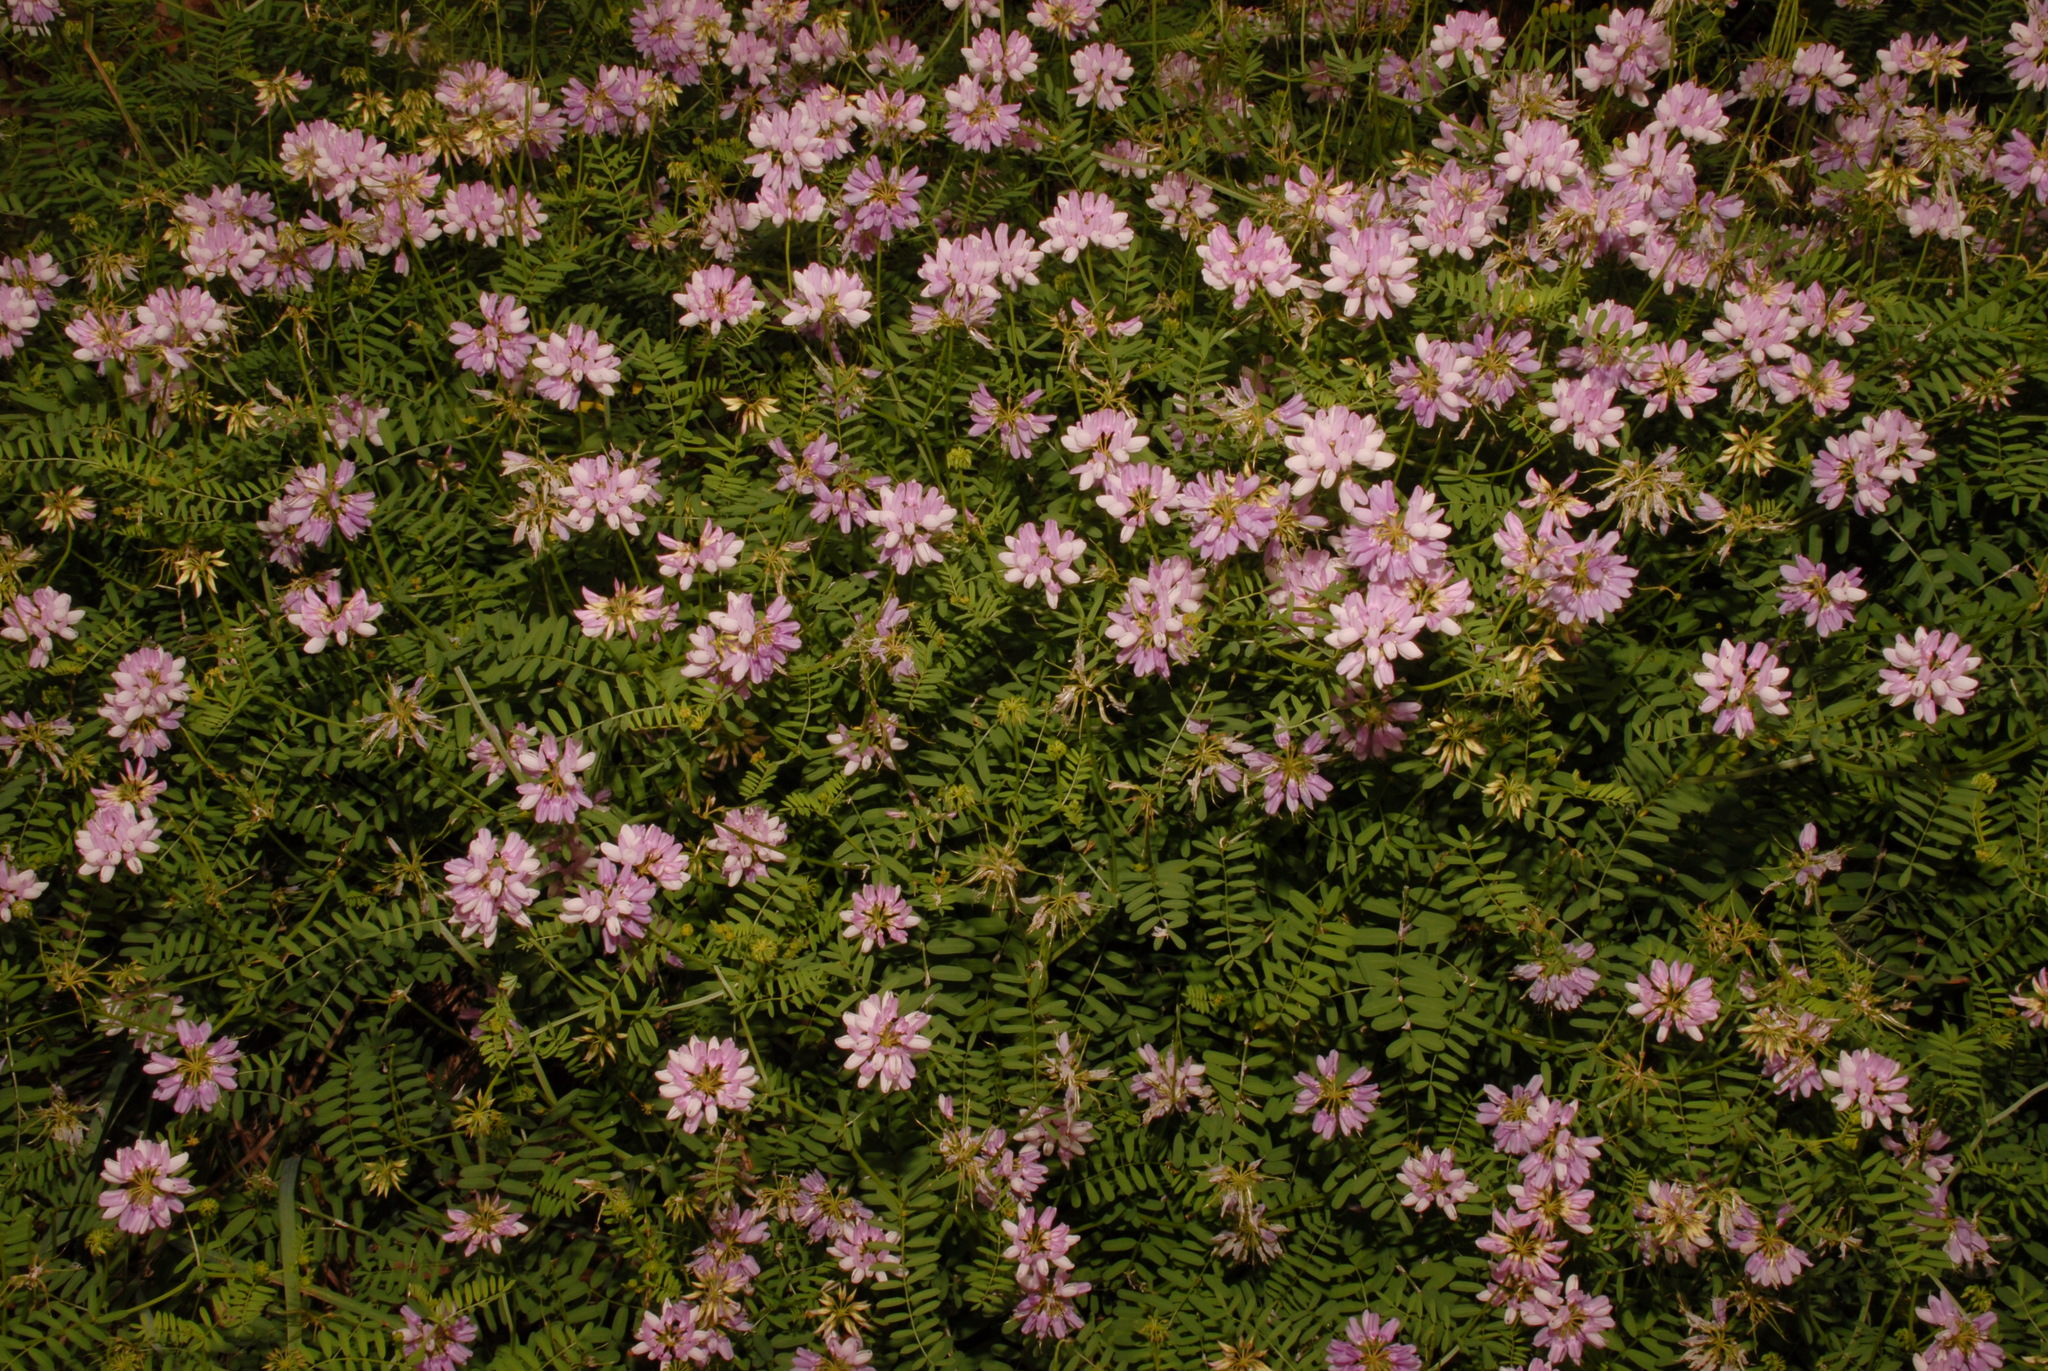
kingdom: Plantae
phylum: Tracheophyta
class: Magnoliopsida
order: Fabales
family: Fabaceae
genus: Coronilla
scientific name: Coronilla varia
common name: Crownvetch
